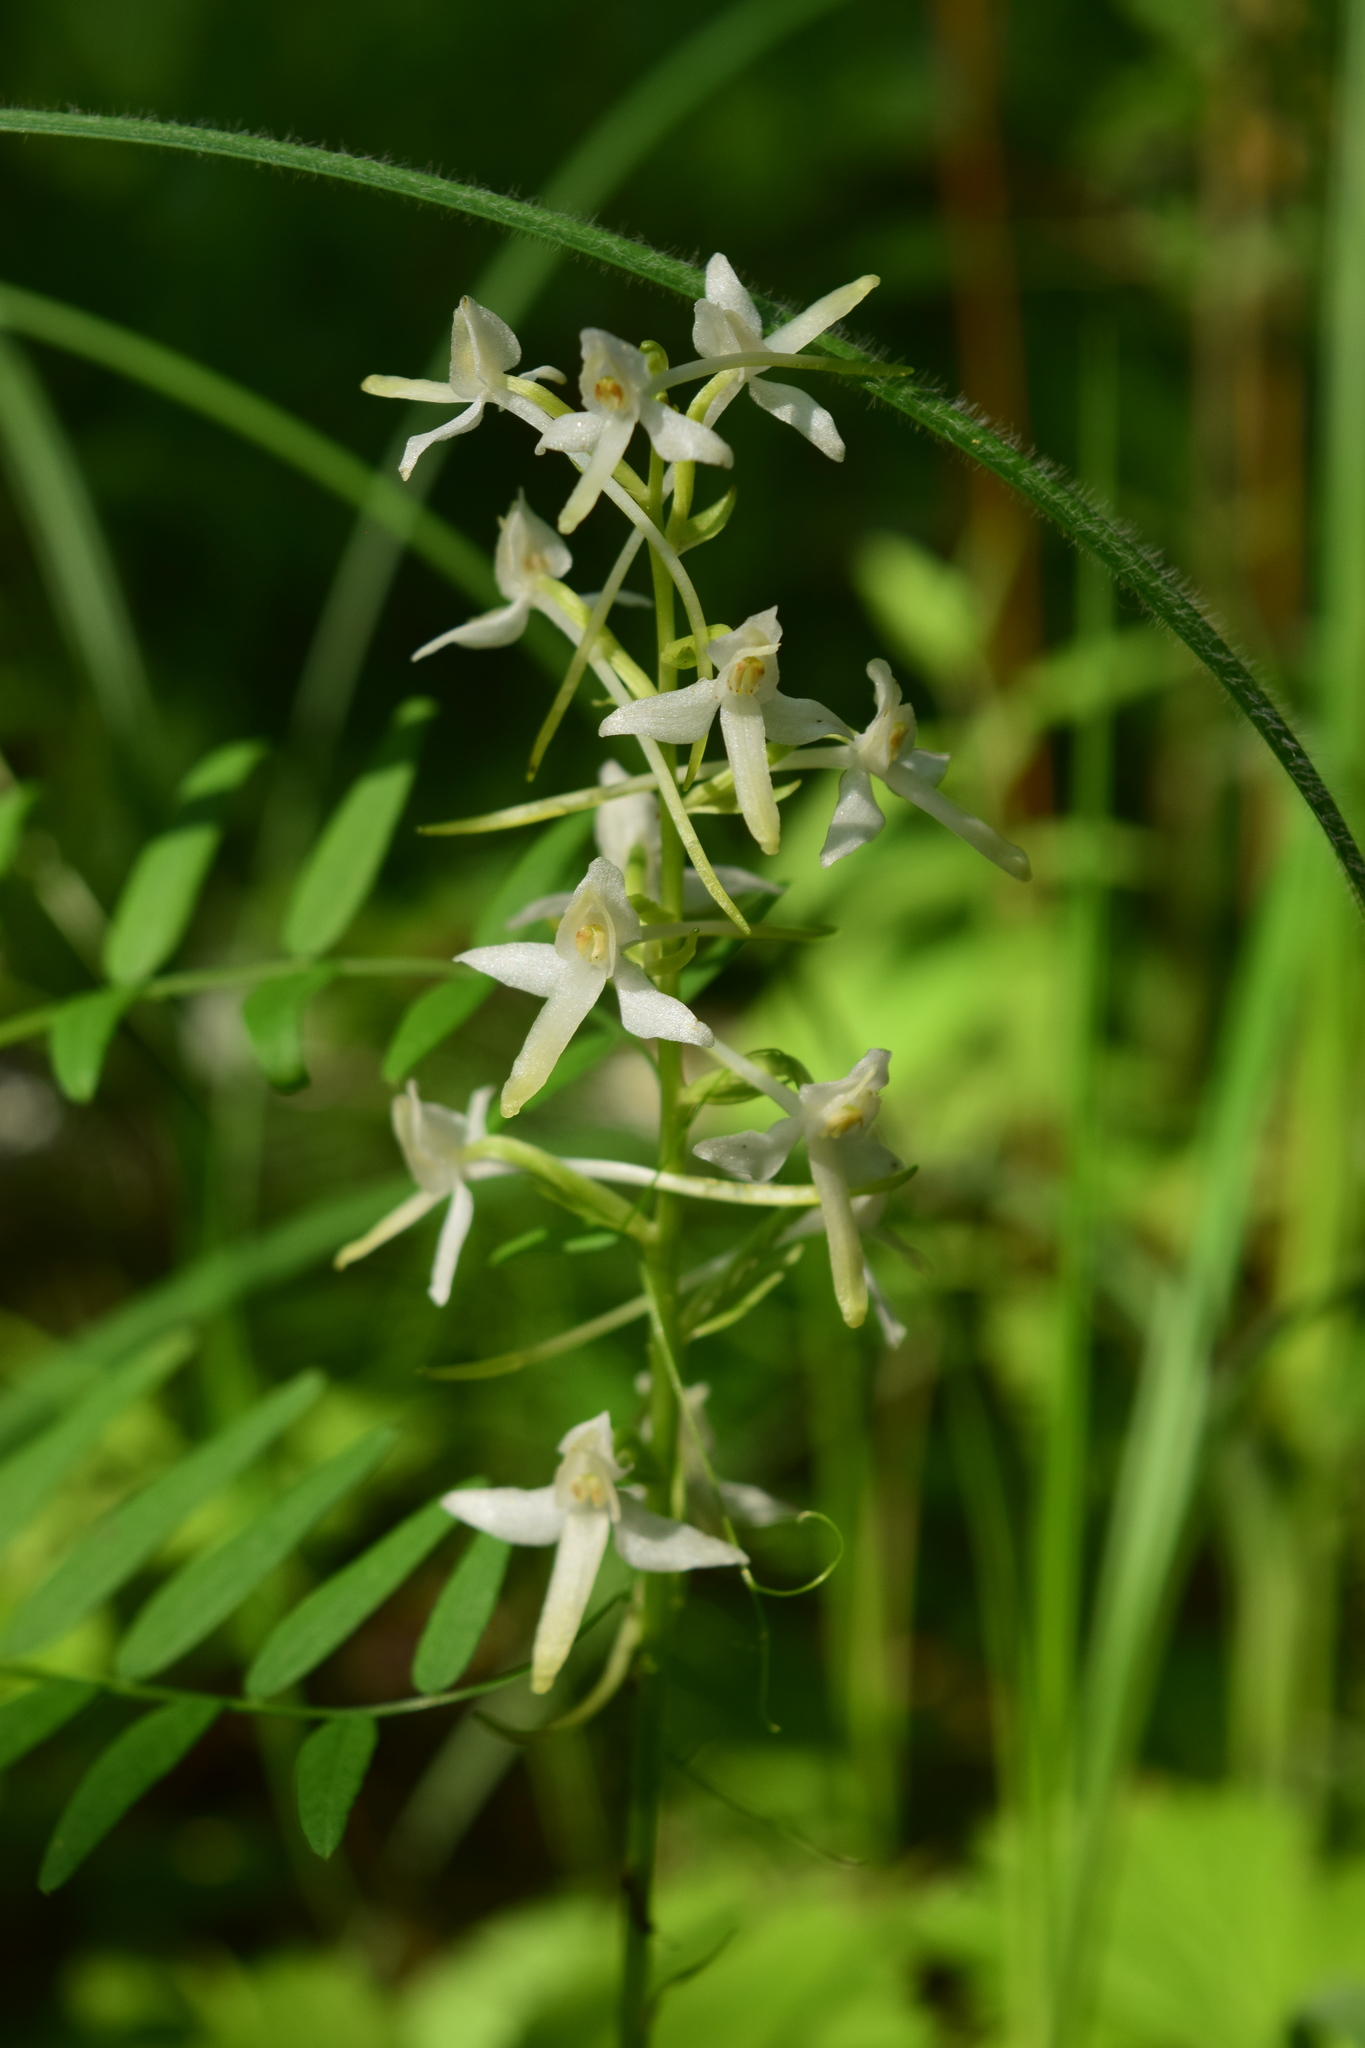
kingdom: Plantae
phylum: Tracheophyta
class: Liliopsida
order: Asparagales
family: Orchidaceae
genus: Platanthera
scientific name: Platanthera bifolia
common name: Lesser butterfly-orchid
